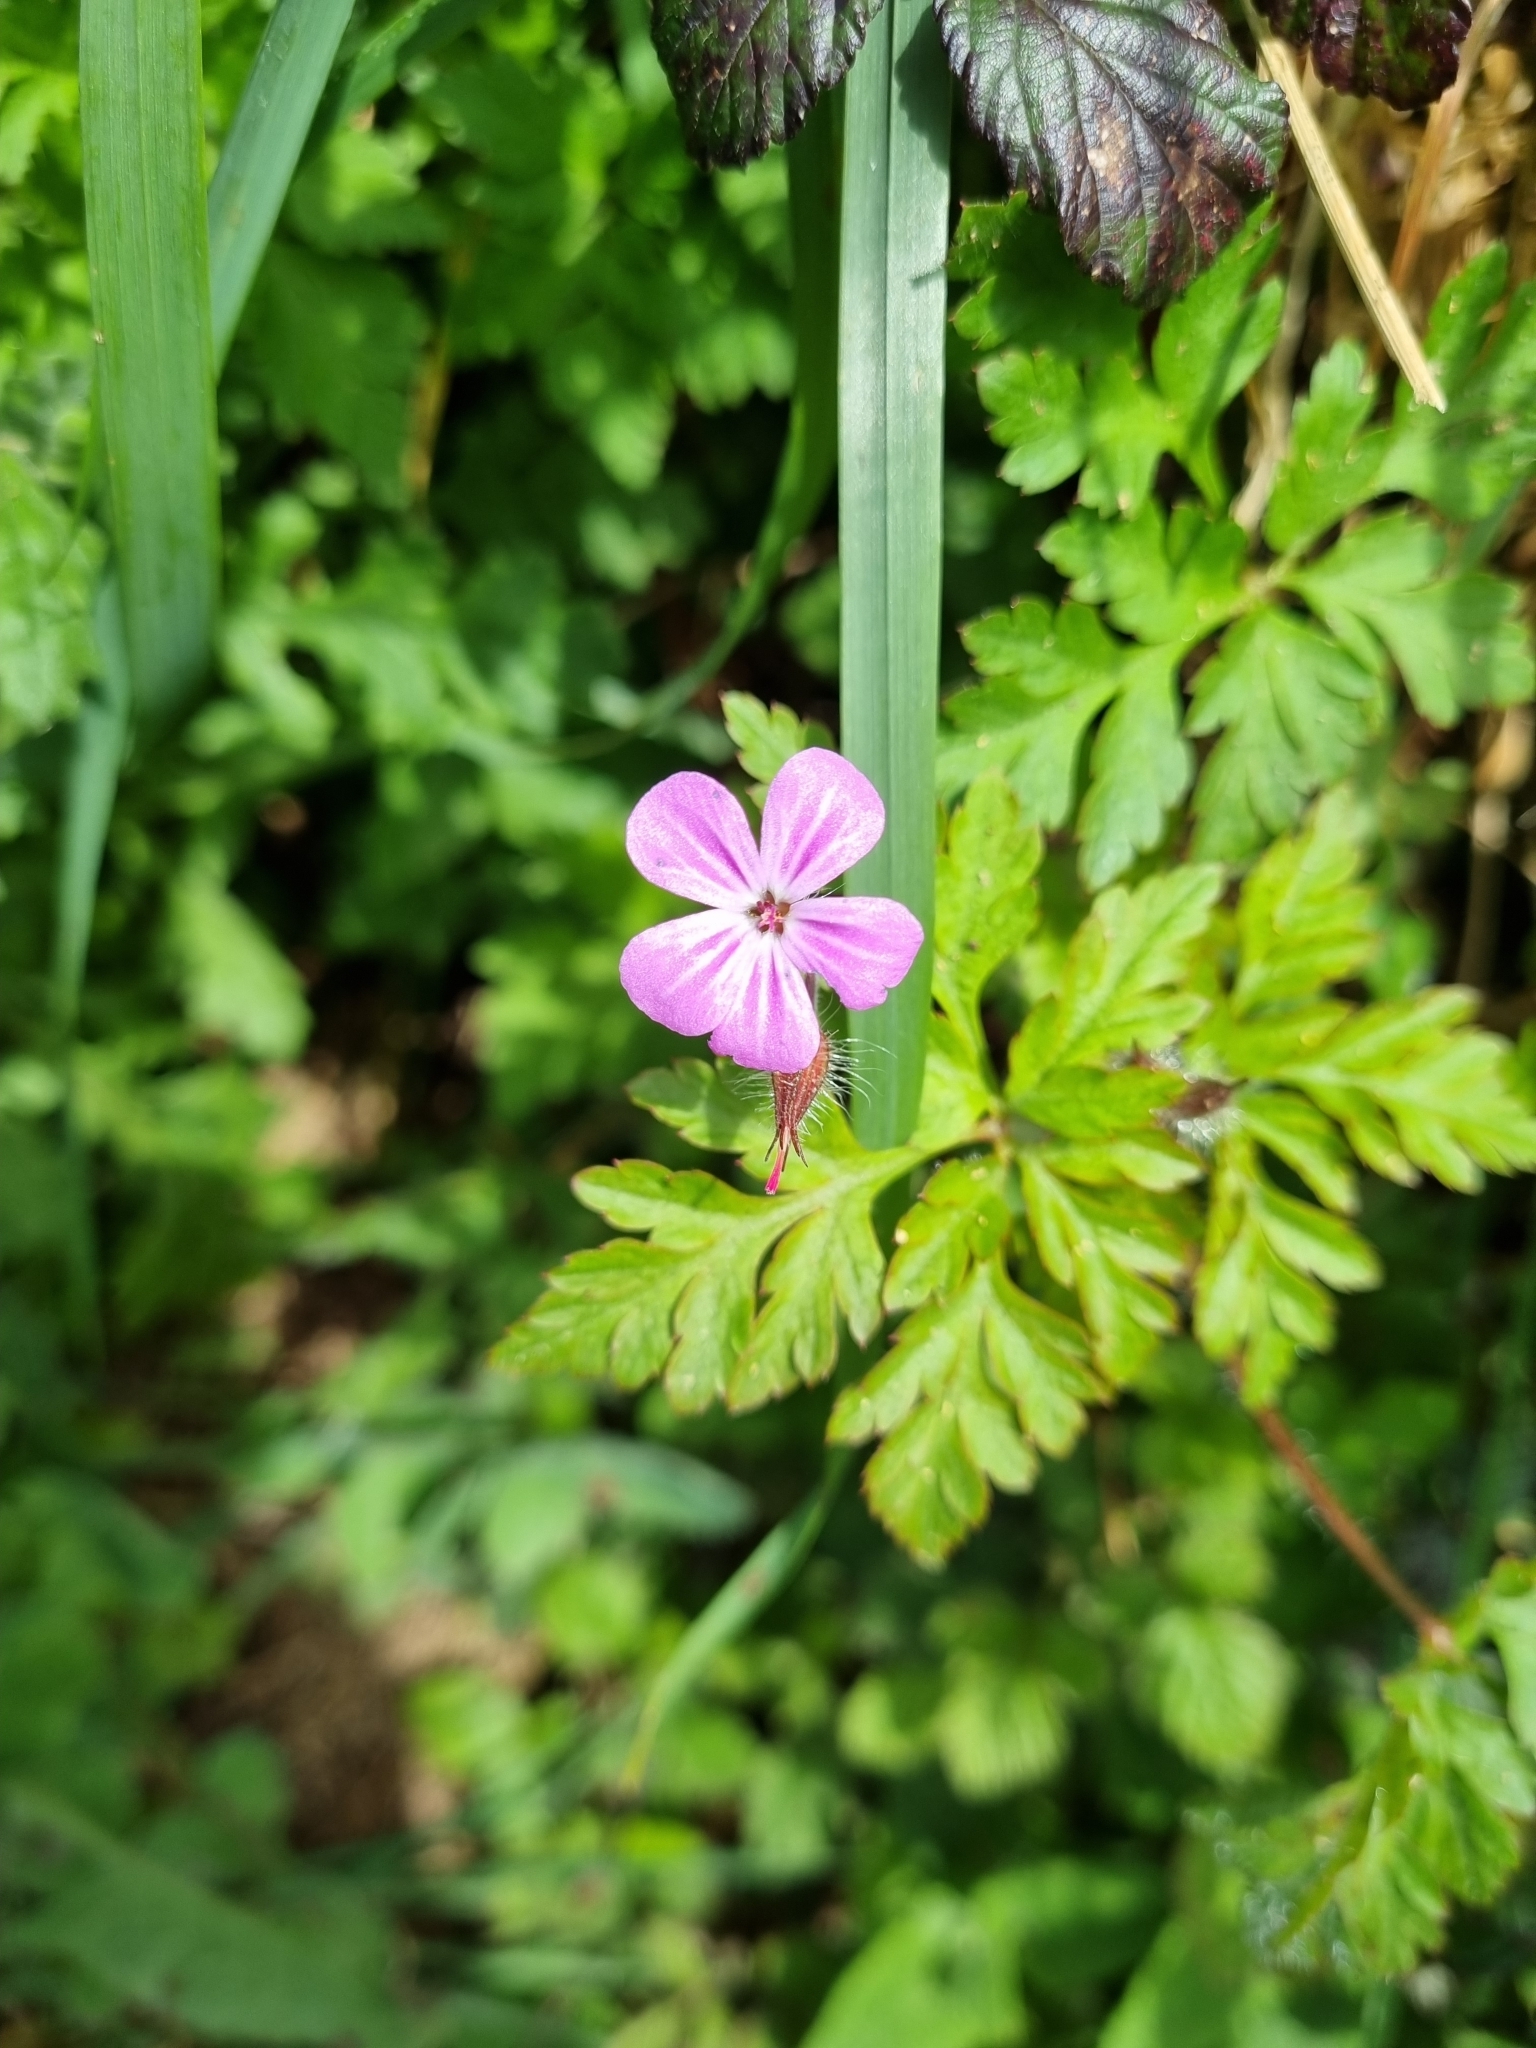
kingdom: Plantae
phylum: Tracheophyta
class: Magnoliopsida
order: Geraniales
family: Geraniaceae
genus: Geranium
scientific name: Geranium robertianum
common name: Herb-robert
